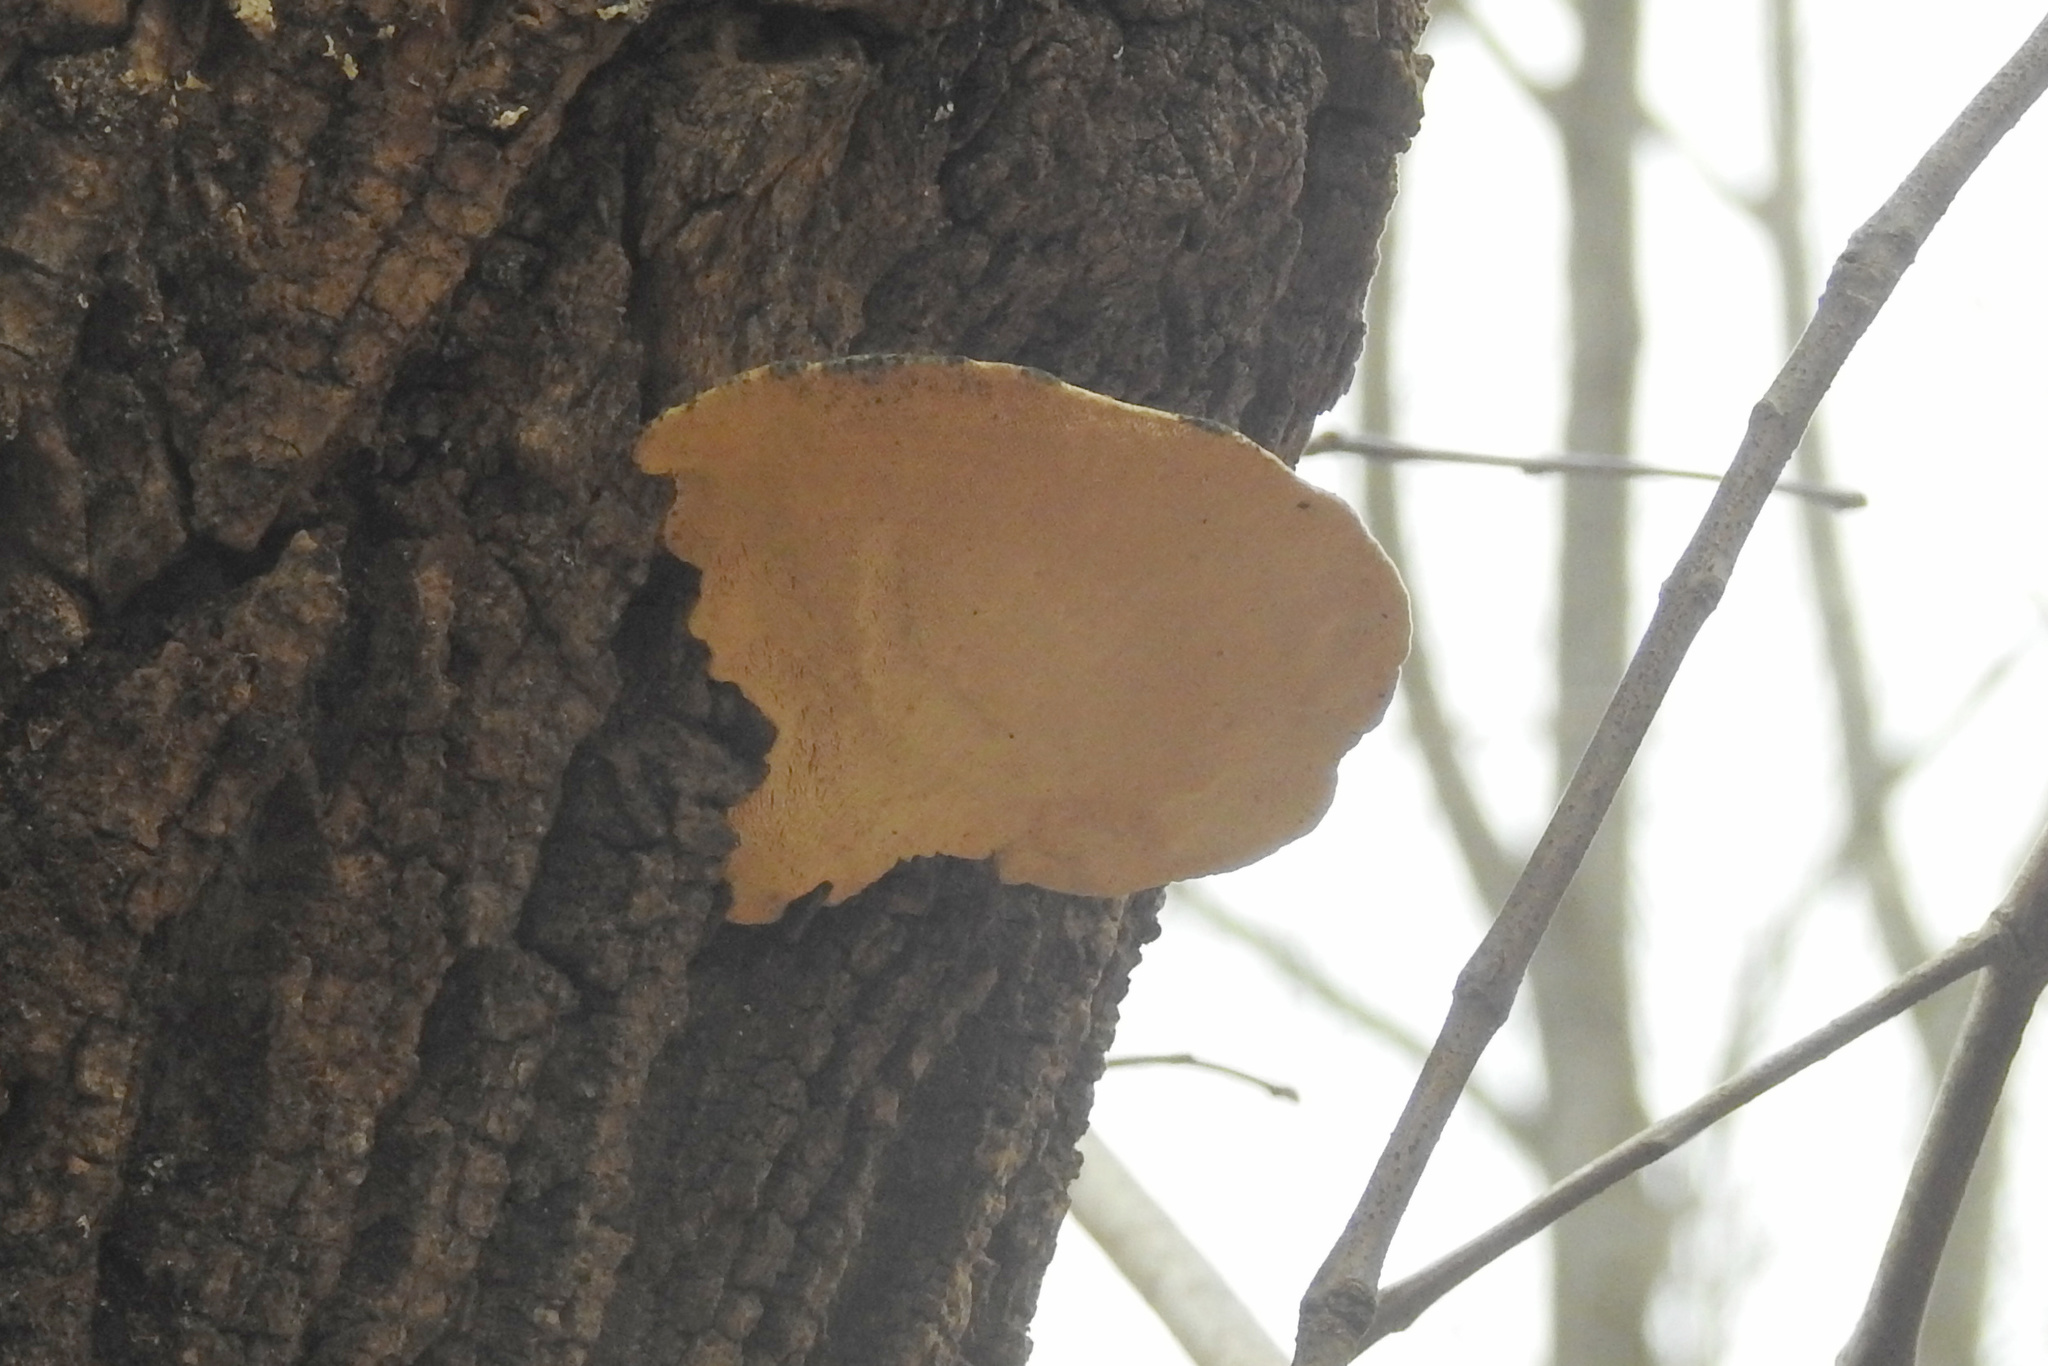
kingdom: Fungi
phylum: Basidiomycota
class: Agaricomycetes
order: Polyporales
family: Polyporaceae
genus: Trametes
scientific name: Trametes gibbosa
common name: Lumpy bracket
